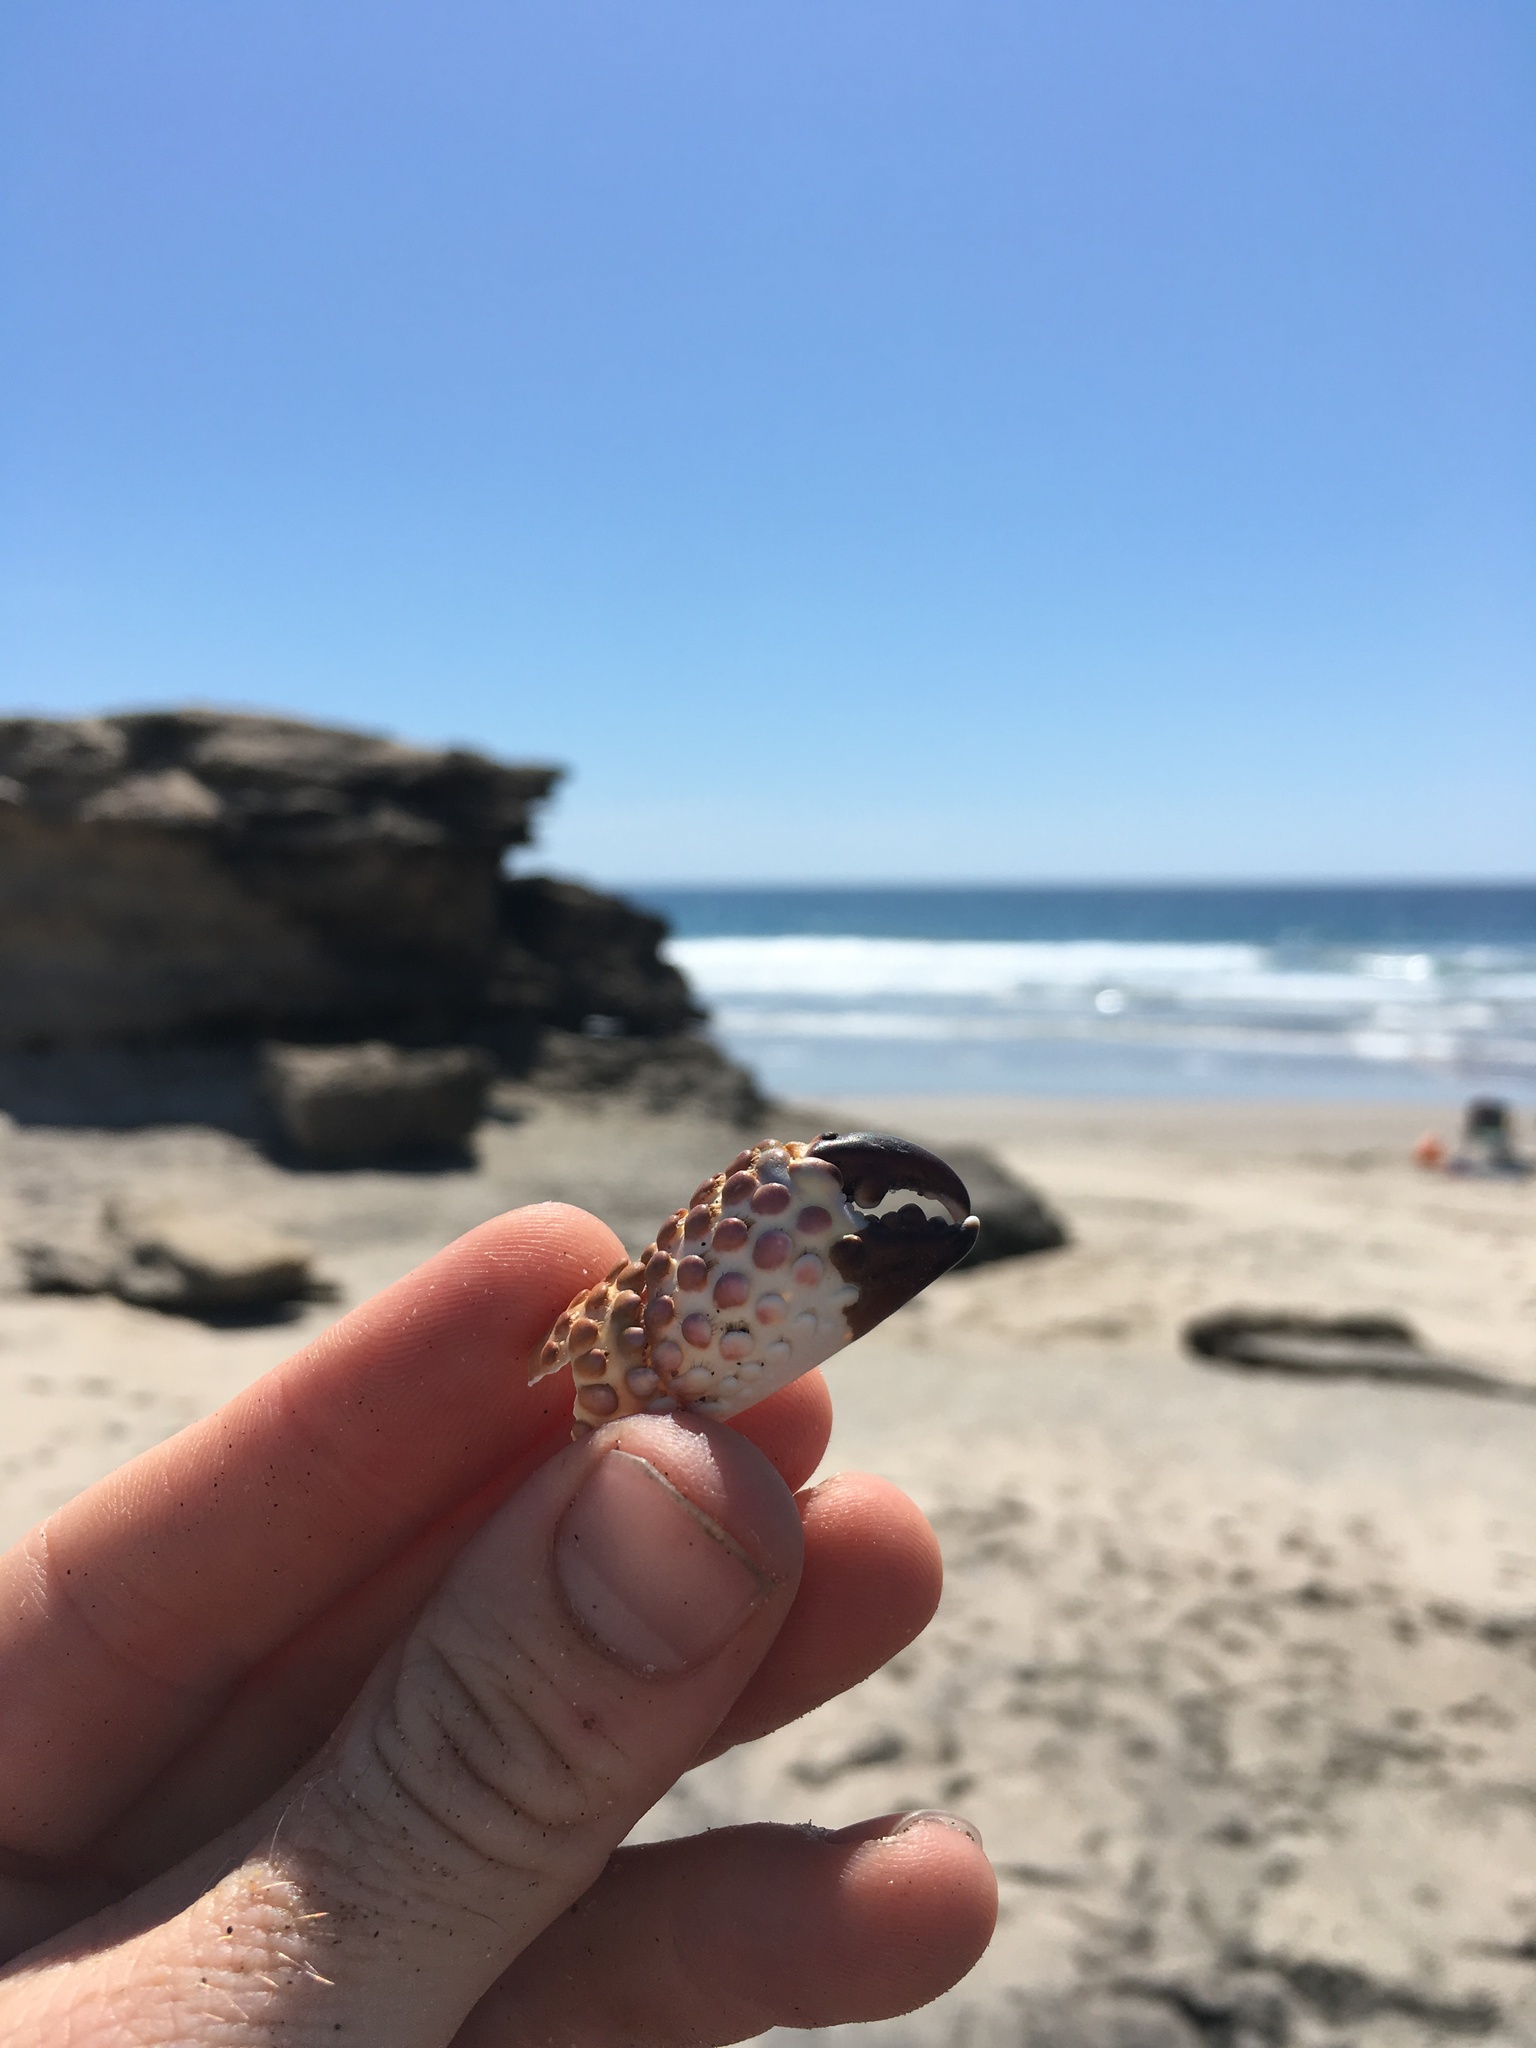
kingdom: Animalia
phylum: Arthropoda
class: Malacostraca
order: Decapoda
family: Eriphiidae
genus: Eriphia
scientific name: Eriphia squamata
